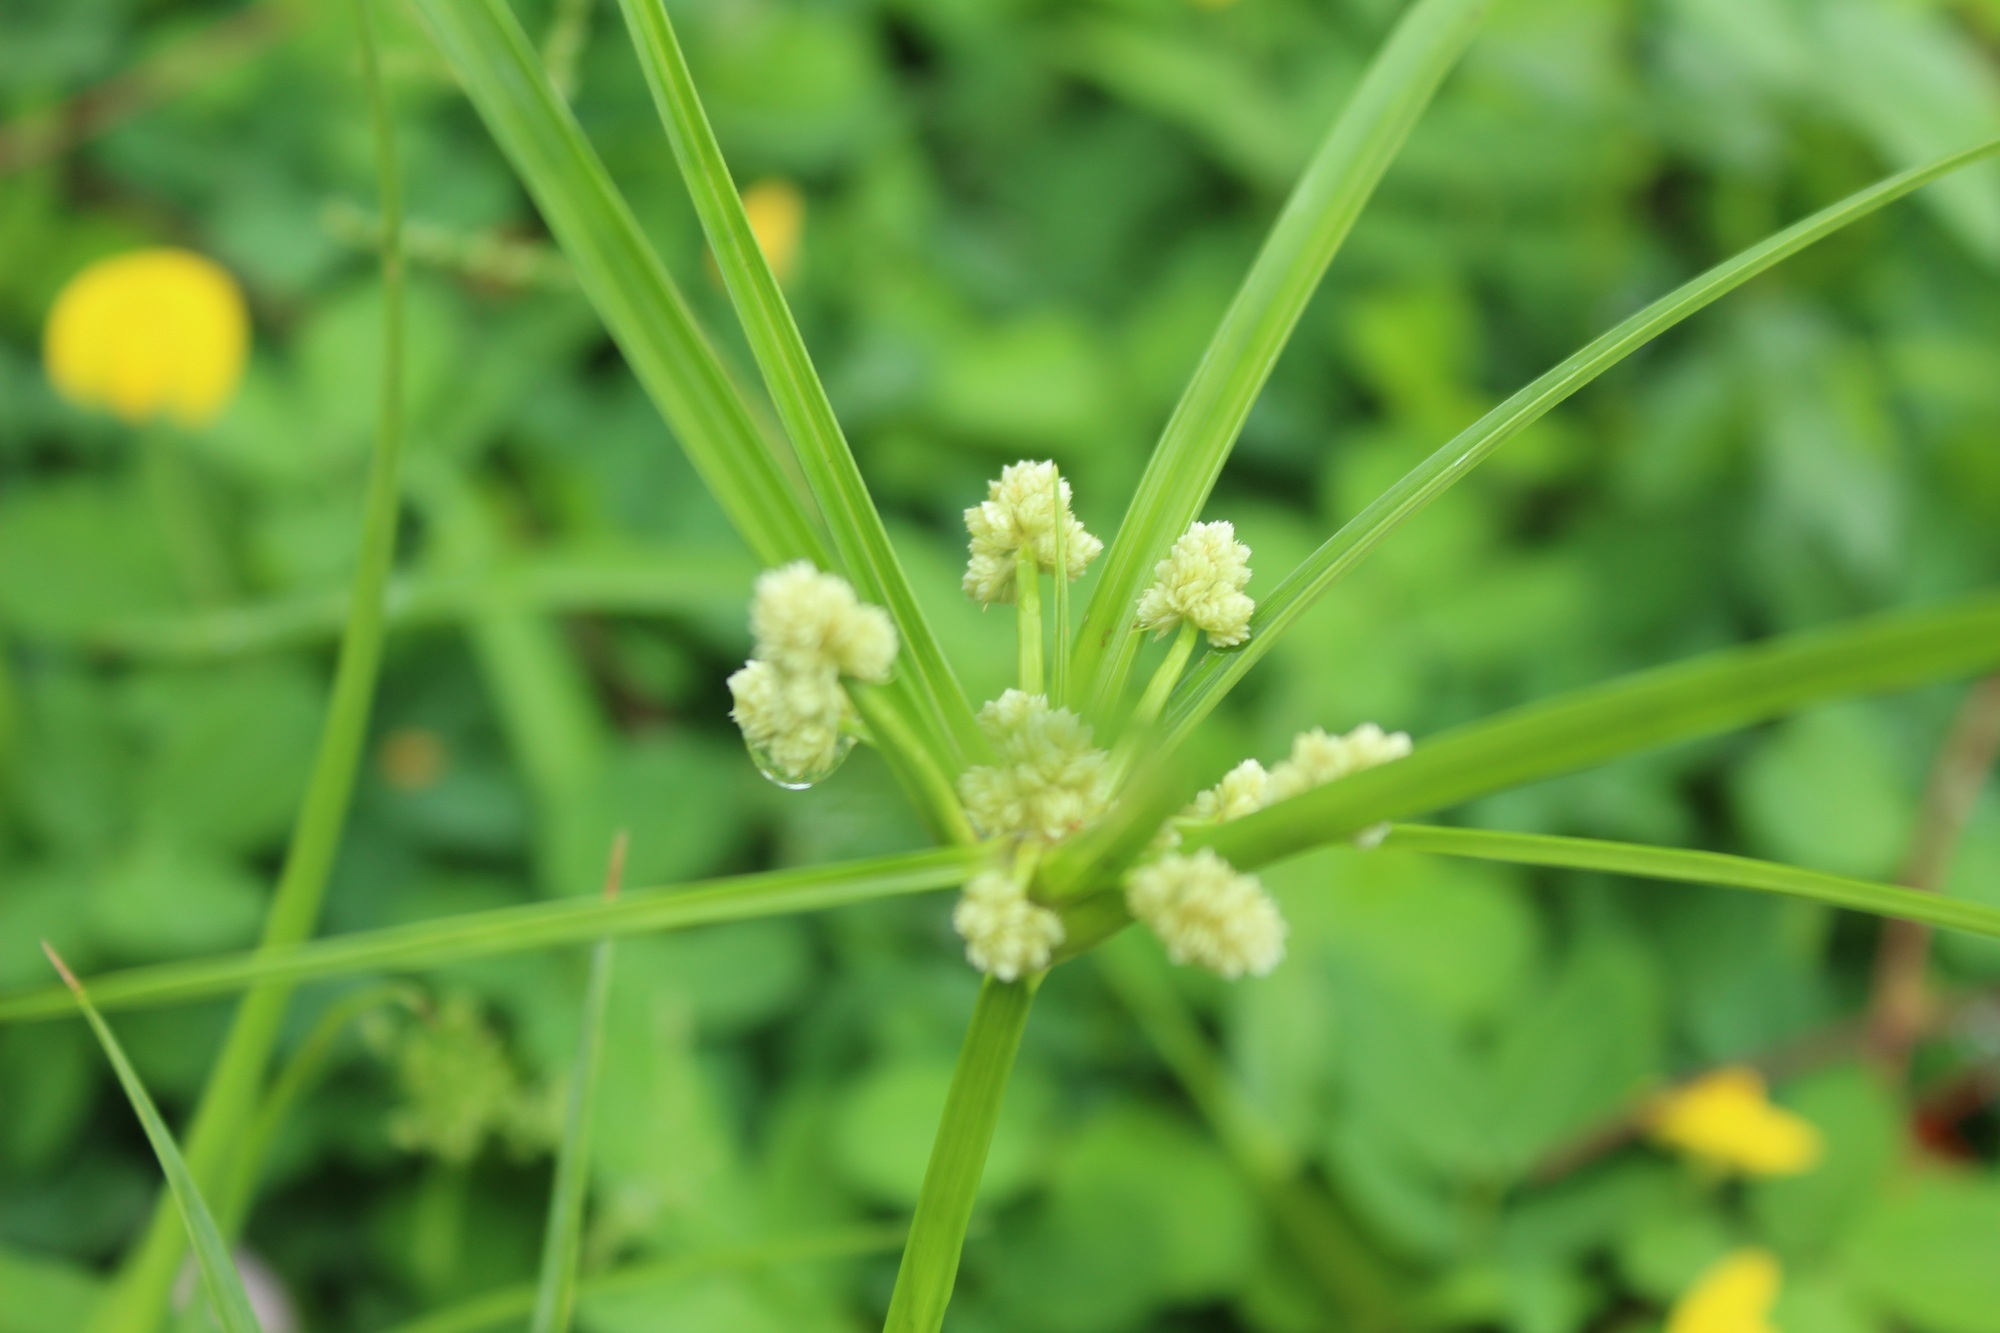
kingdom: Plantae
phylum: Tracheophyta
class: Liliopsida
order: Poales
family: Cyperaceae
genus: Cyperus
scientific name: Cyperus luzulae
